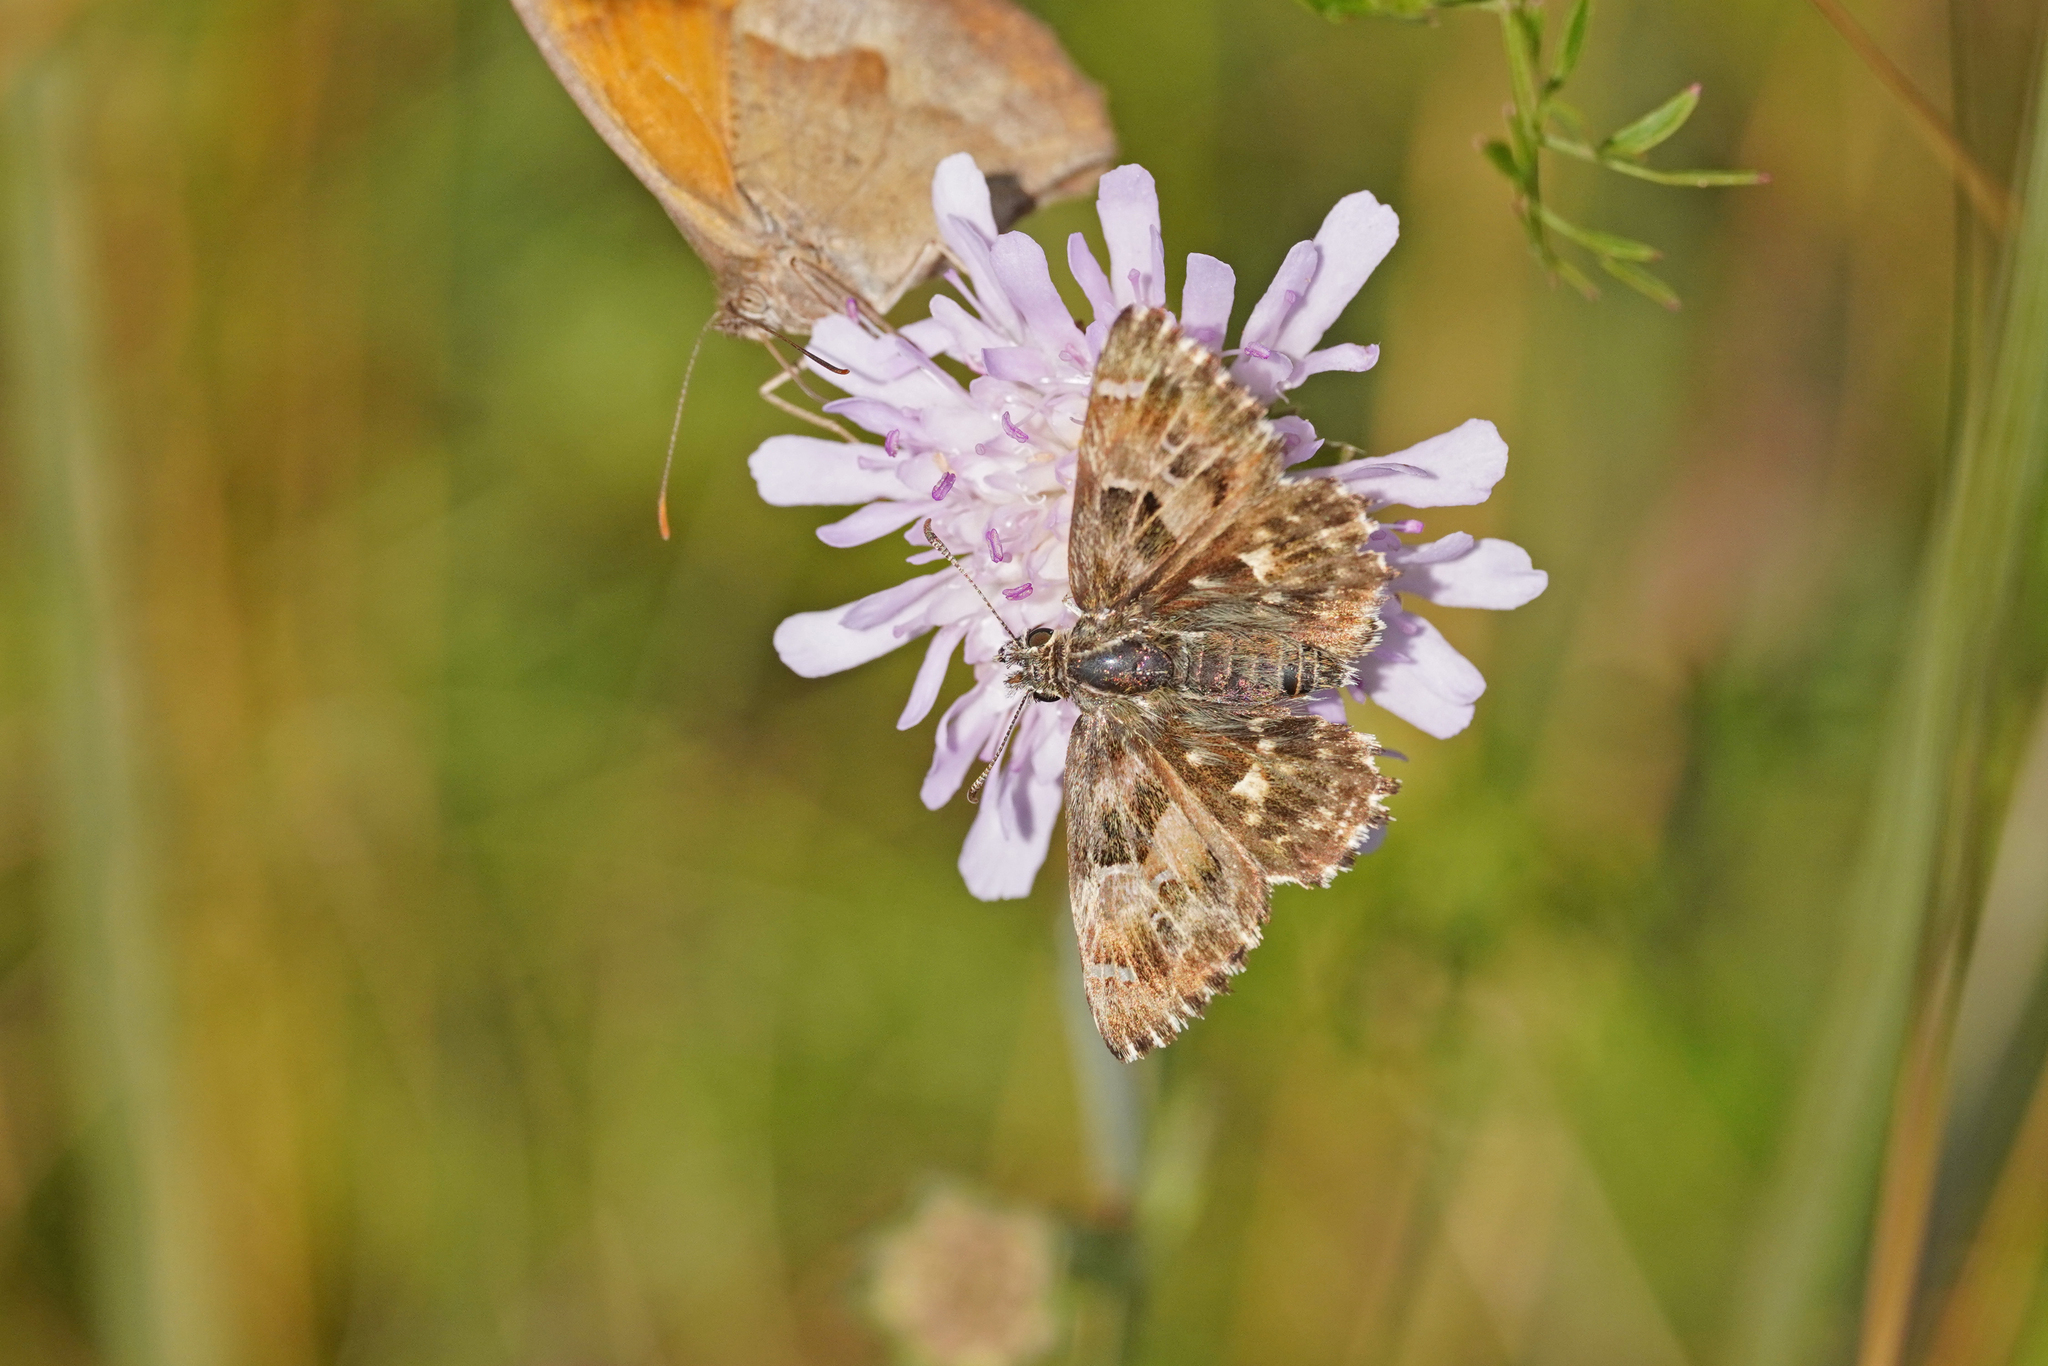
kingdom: Animalia
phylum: Arthropoda
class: Insecta
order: Lepidoptera
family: Hesperiidae
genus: Carcharodus
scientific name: Carcharodus alceae
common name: Mallow skipper
